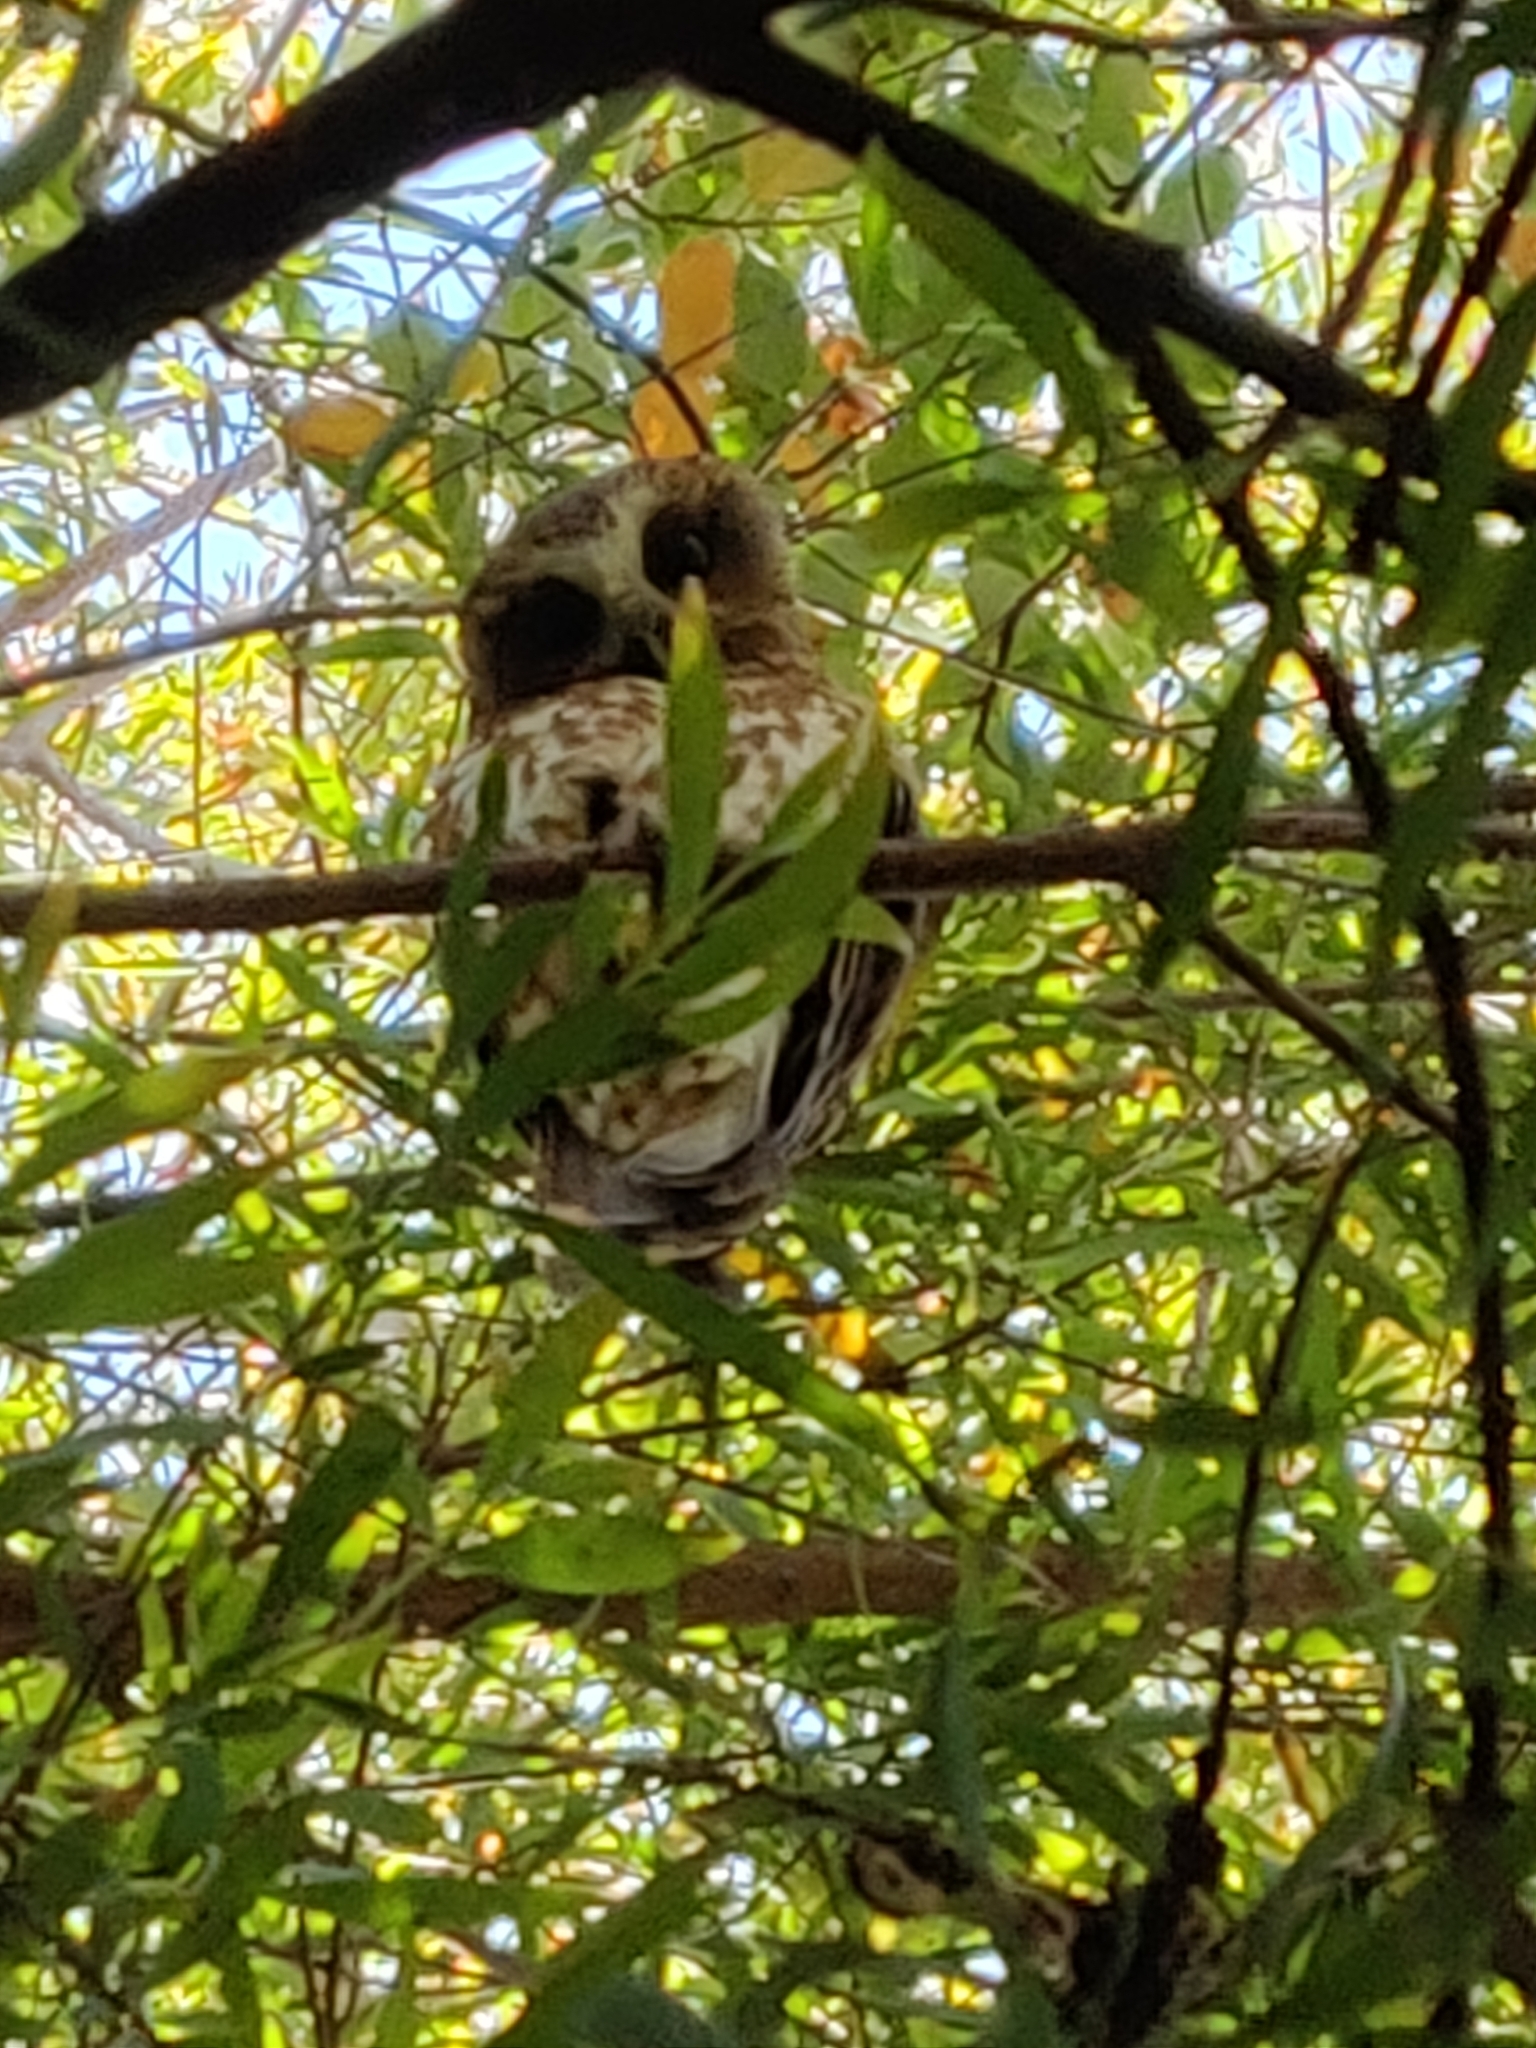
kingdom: Animalia
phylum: Chordata
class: Aves
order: Strigiformes
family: Strigidae
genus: Ninox
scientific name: Ninox boobook
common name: Southern boobook
